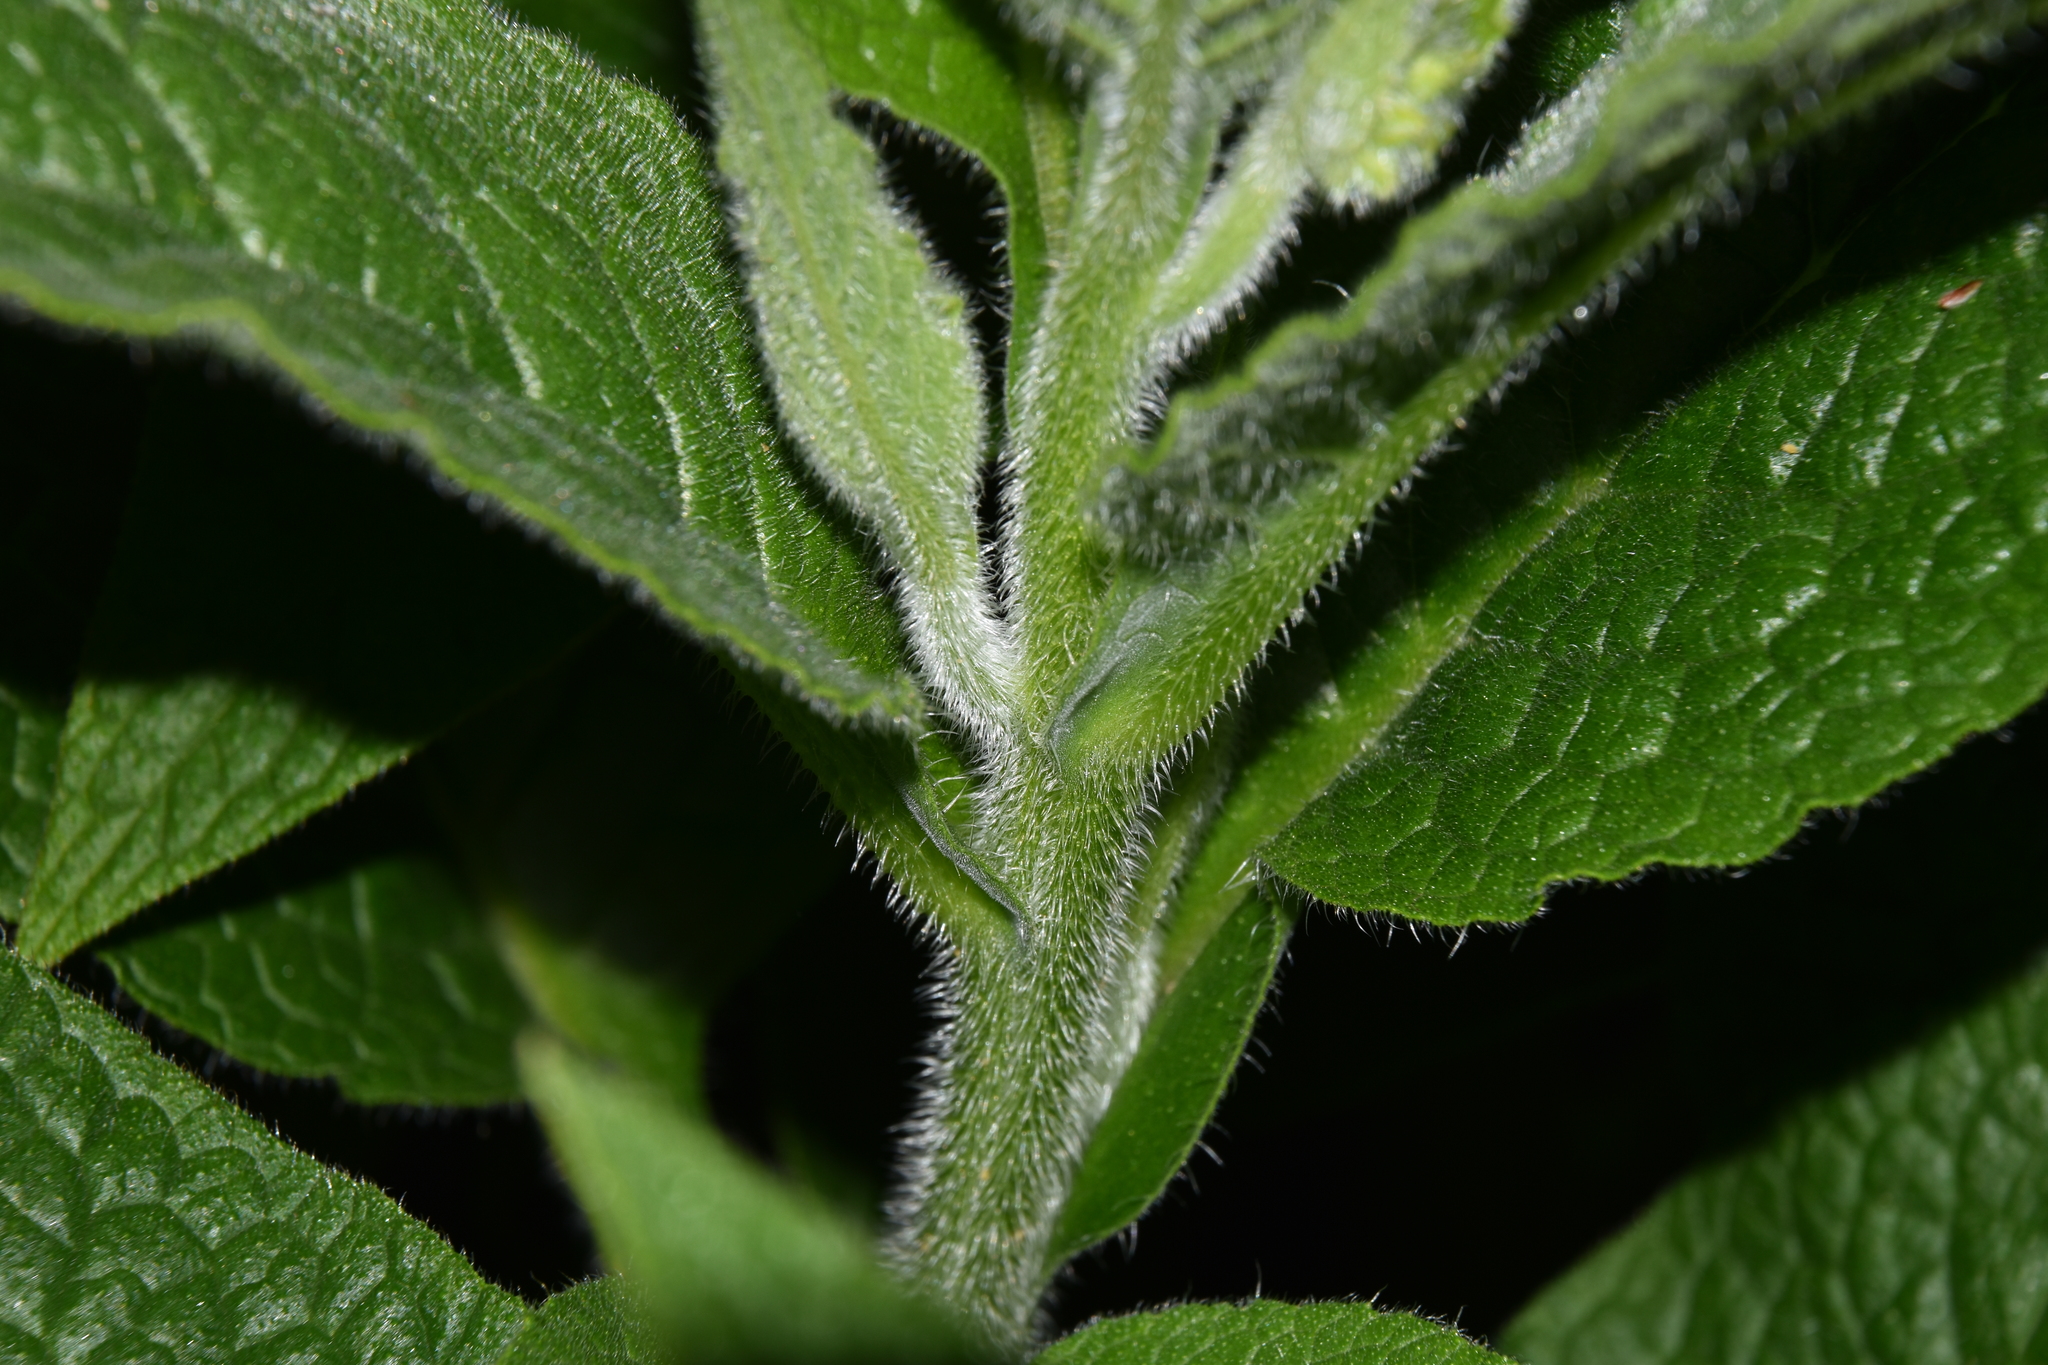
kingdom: Plantae
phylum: Tracheophyta
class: Magnoliopsida
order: Boraginales
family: Boraginaceae
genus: Symphytum
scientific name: Symphytum uplandicum
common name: Russian comfrey
